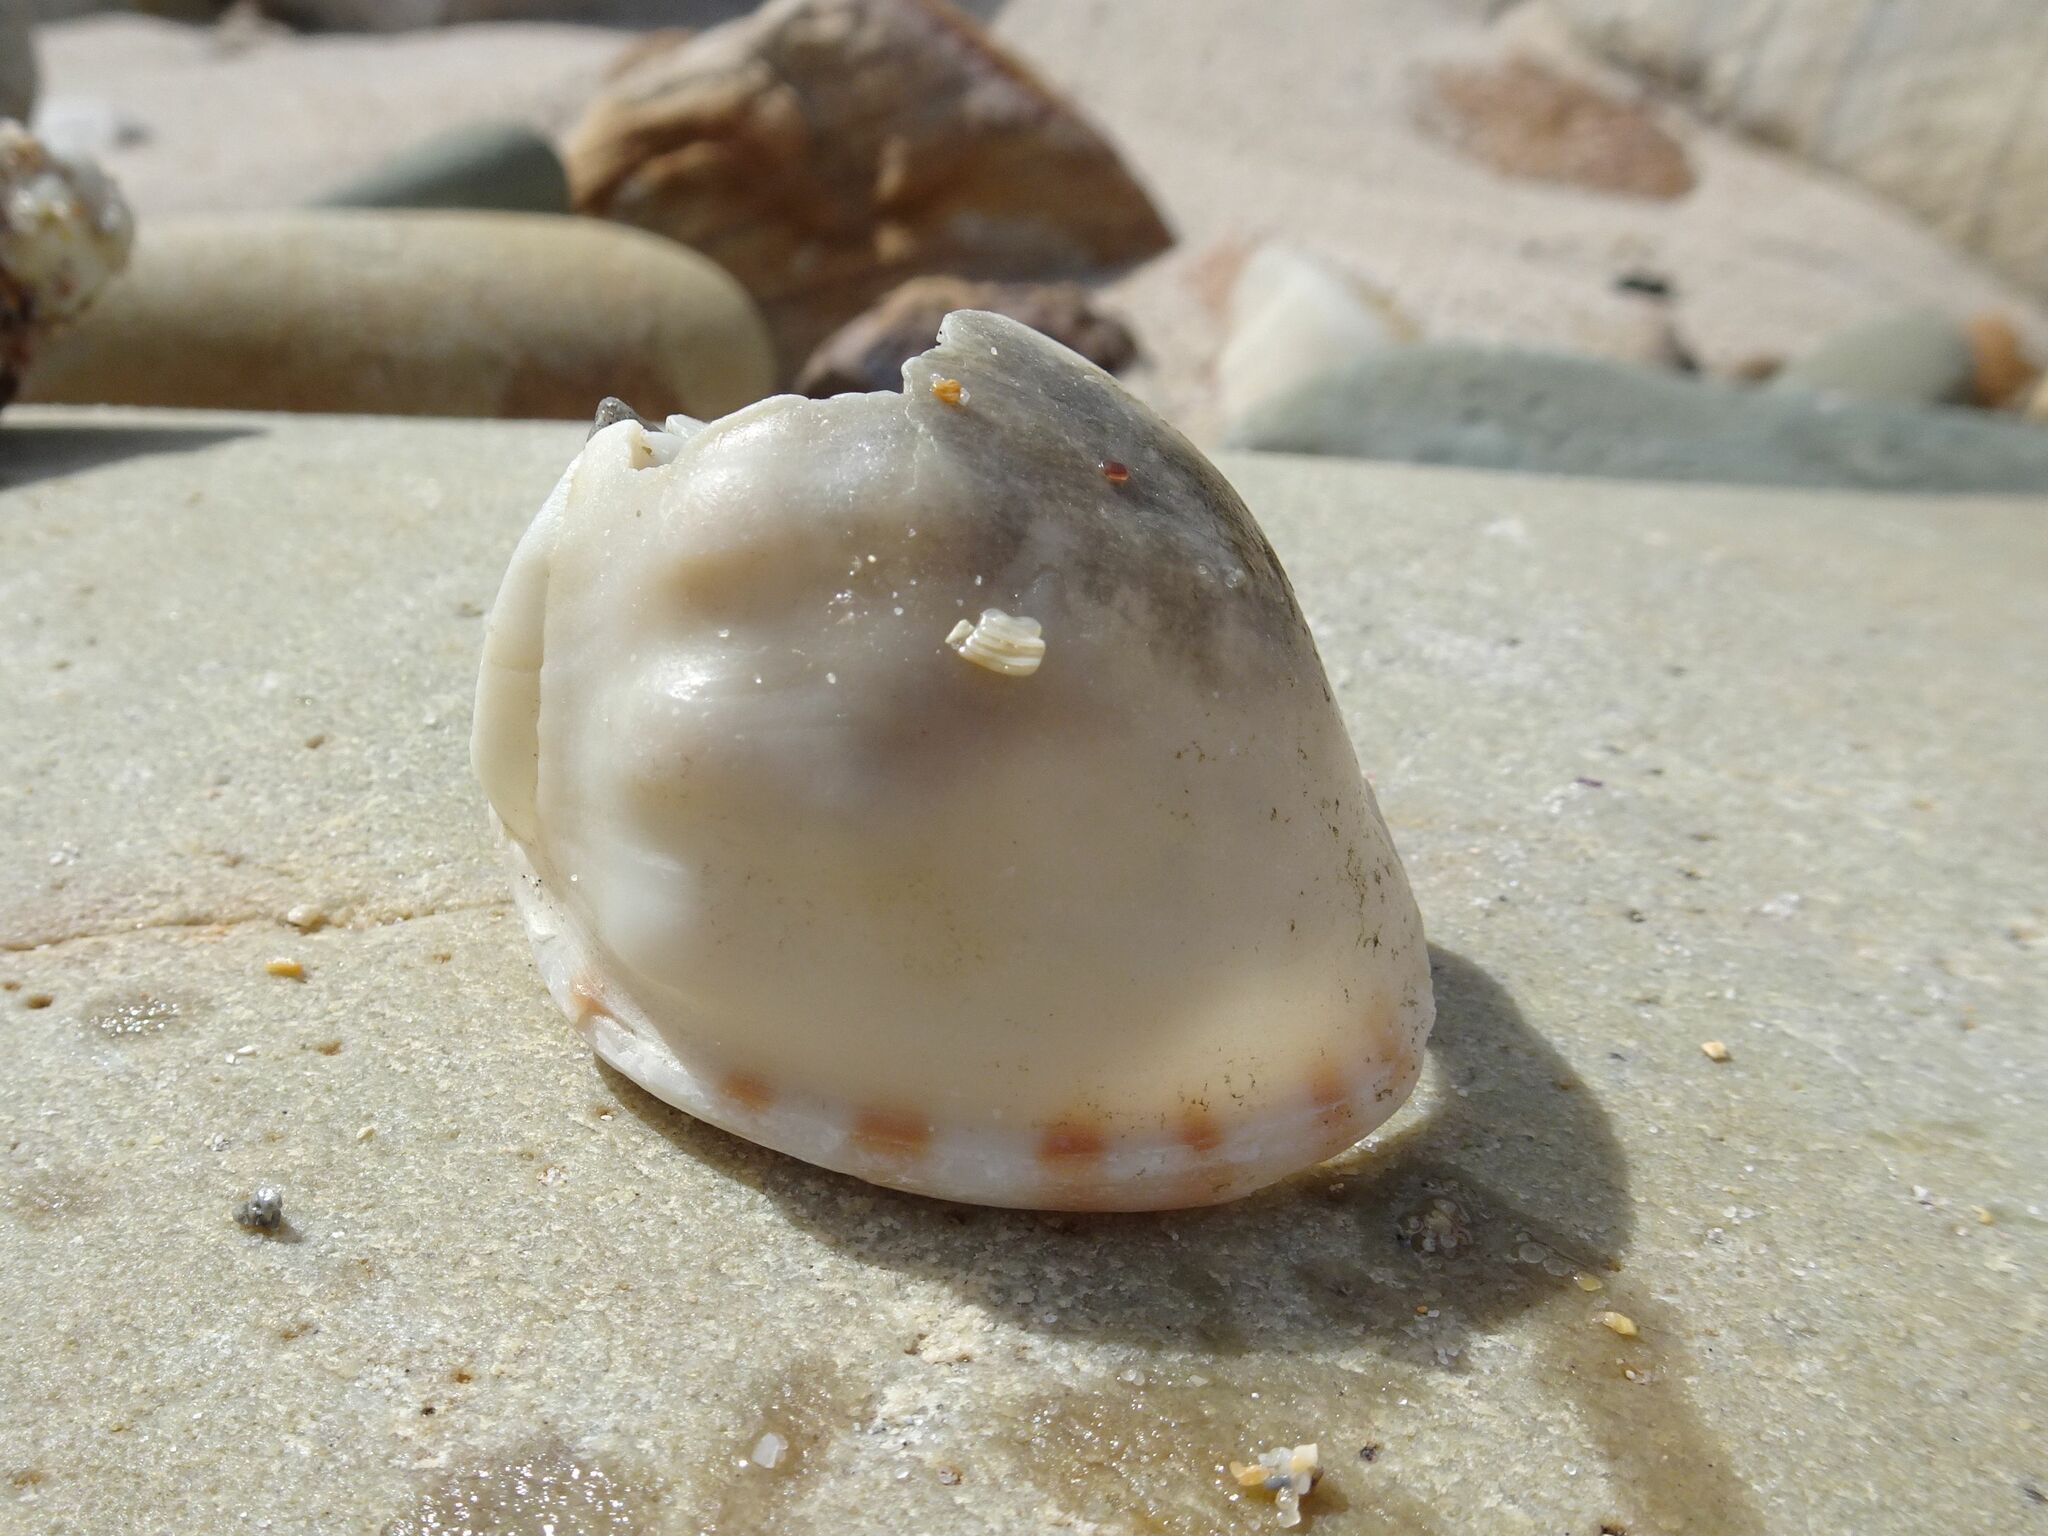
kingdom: Animalia
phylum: Mollusca
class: Gastropoda
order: Littorinimorpha
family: Cassidae
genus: Semicassis
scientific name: Semicassis zeylanica
